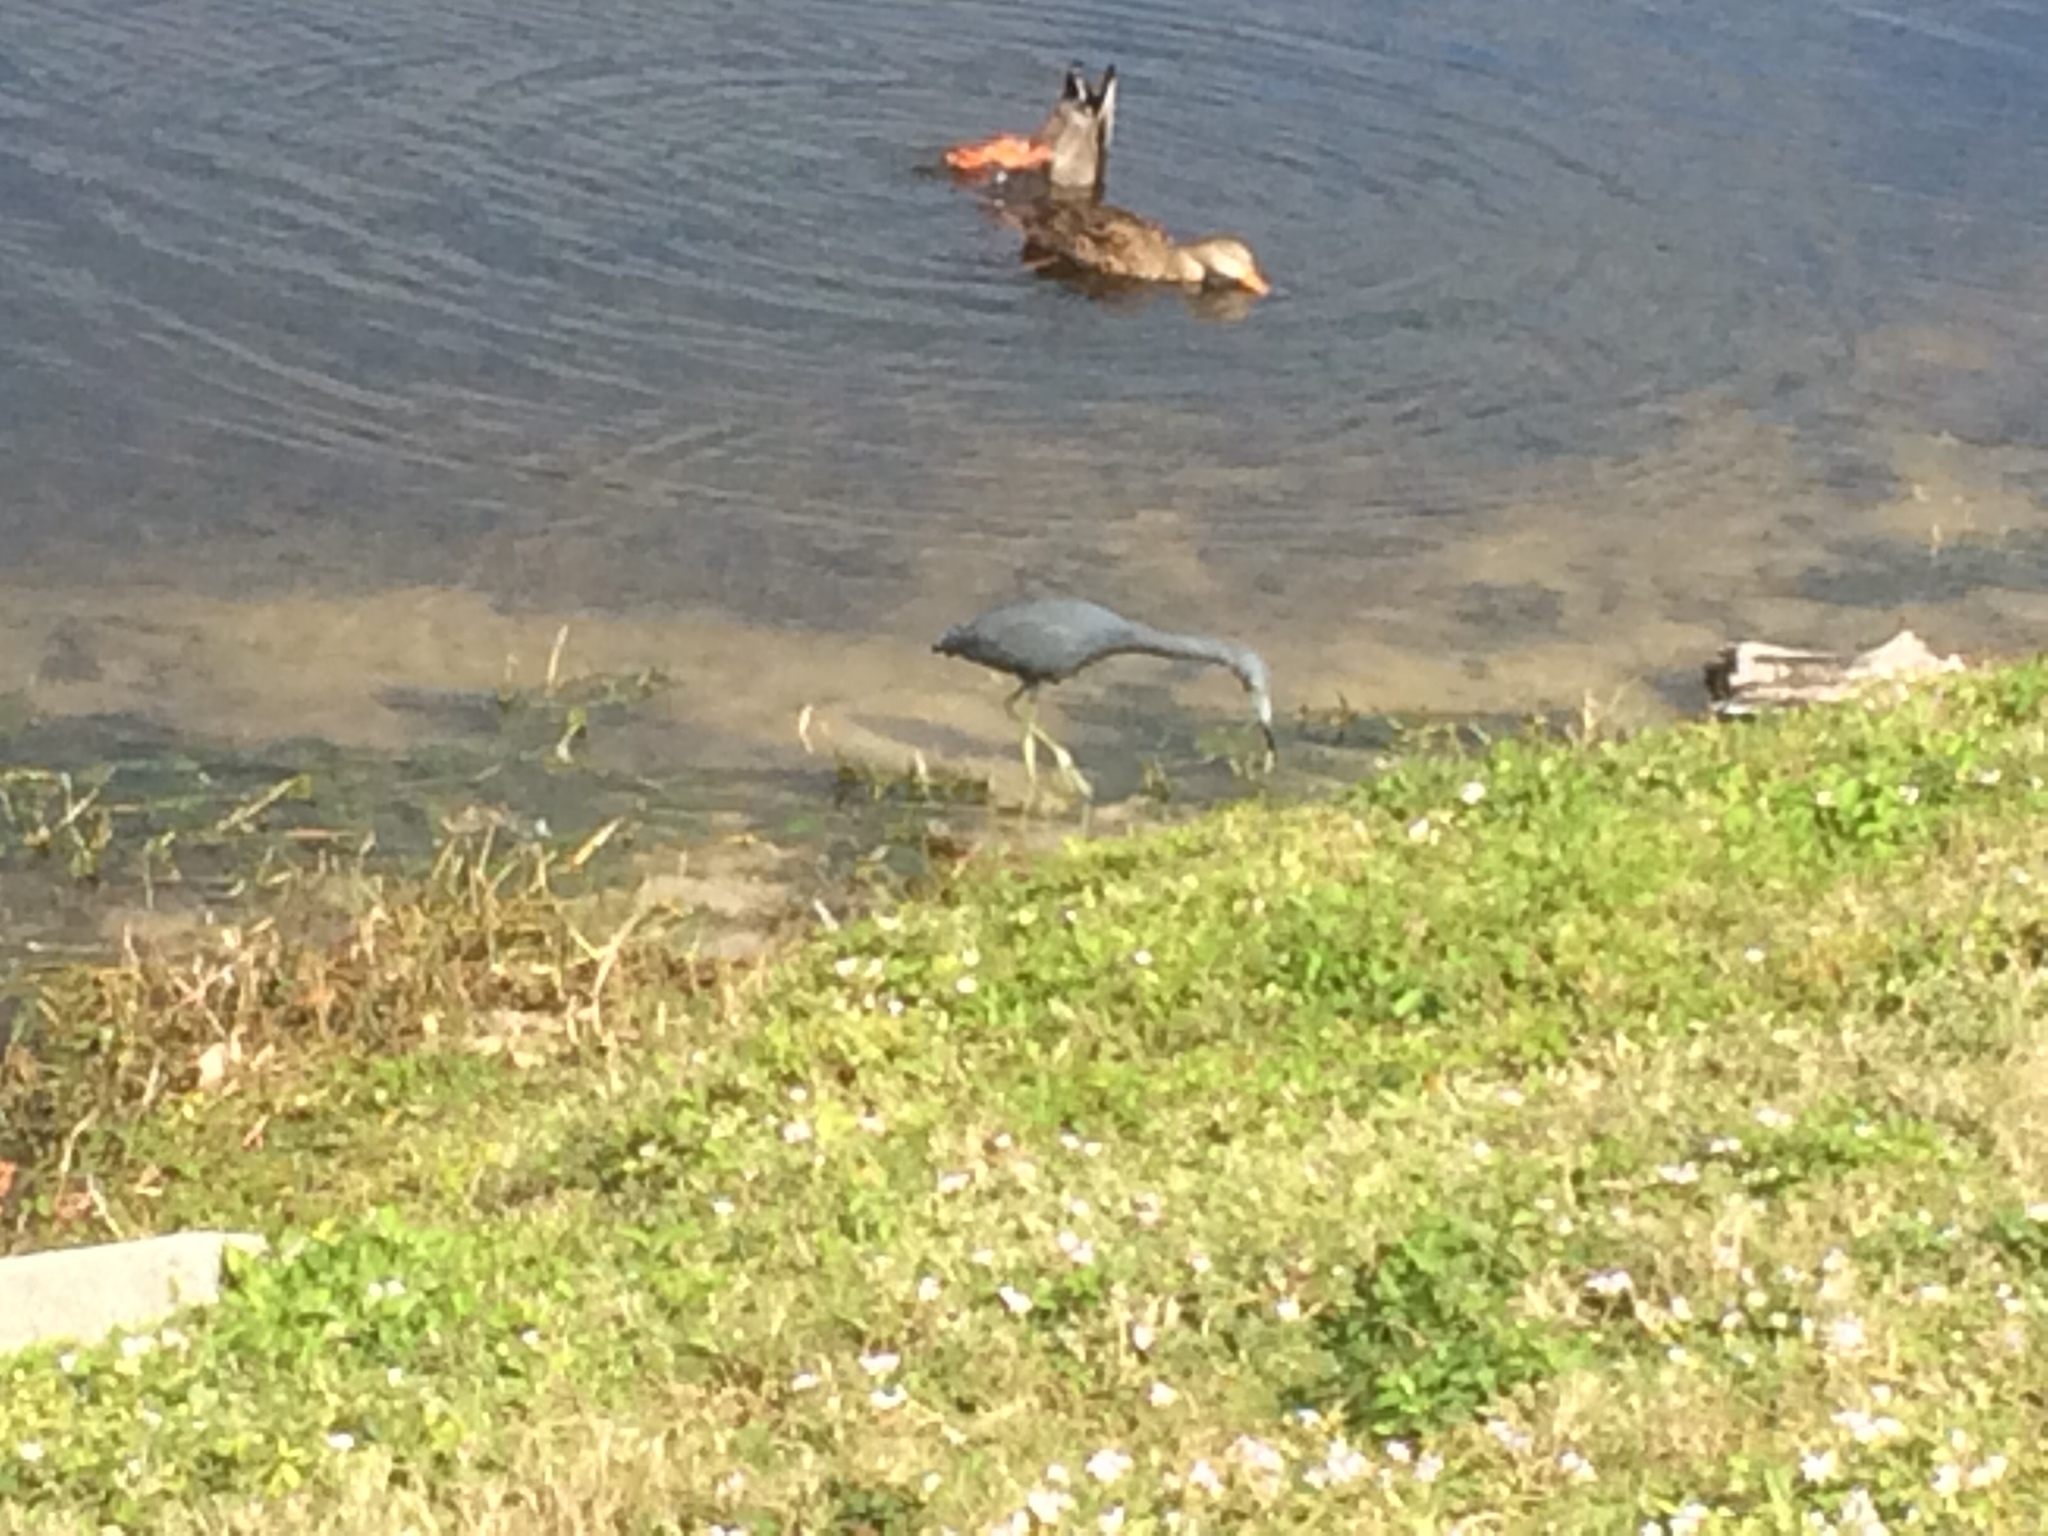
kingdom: Animalia
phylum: Chordata
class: Aves
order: Pelecaniformes
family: Ardeidae
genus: Egretta
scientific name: Egretta caerulea
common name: Little blue heron
